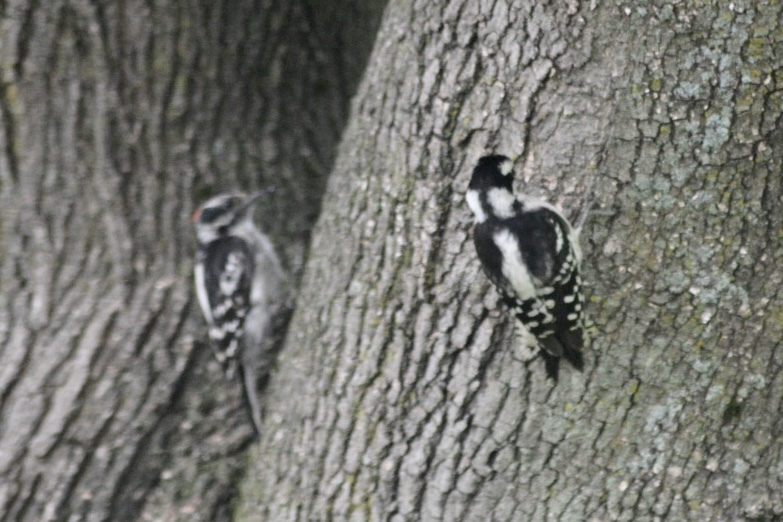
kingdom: Animalia
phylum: Chordata
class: Aves
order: Piciformes
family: Picidae
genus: Dryobates
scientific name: Dryobates pubescens
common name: Downy woodpecker
